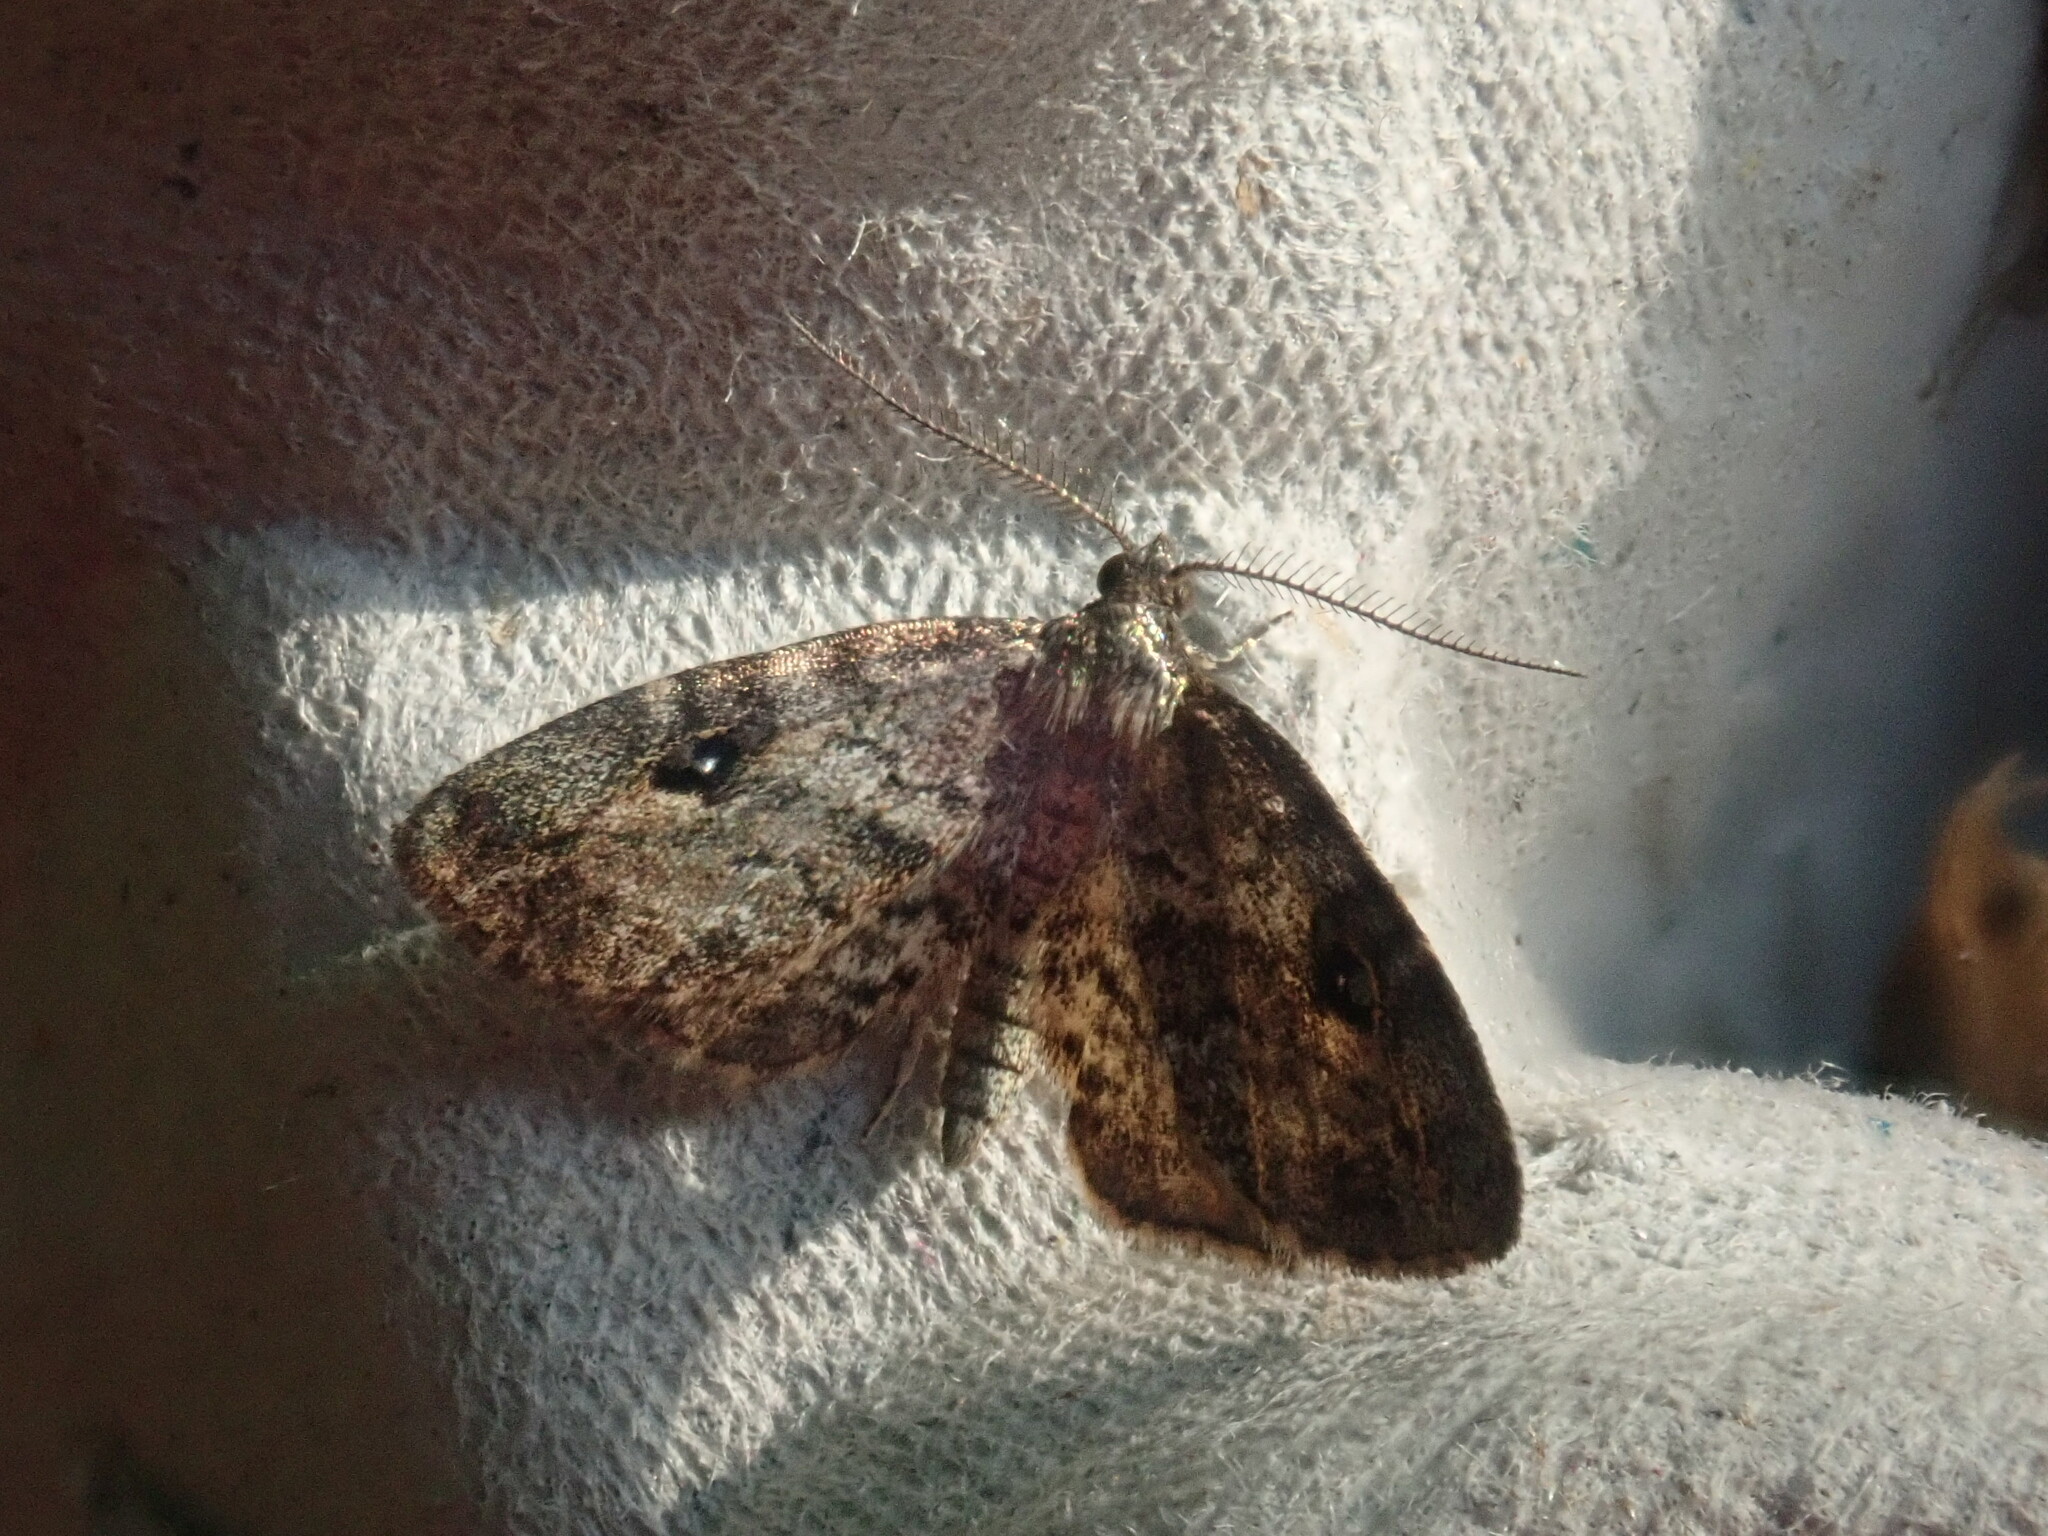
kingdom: Animalia
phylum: Arthropoda
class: Insecta
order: Lepidoptera
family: Erebidae
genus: Melanomma
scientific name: Melanomma auricinctaria
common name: Gold-lined melanomma moth
